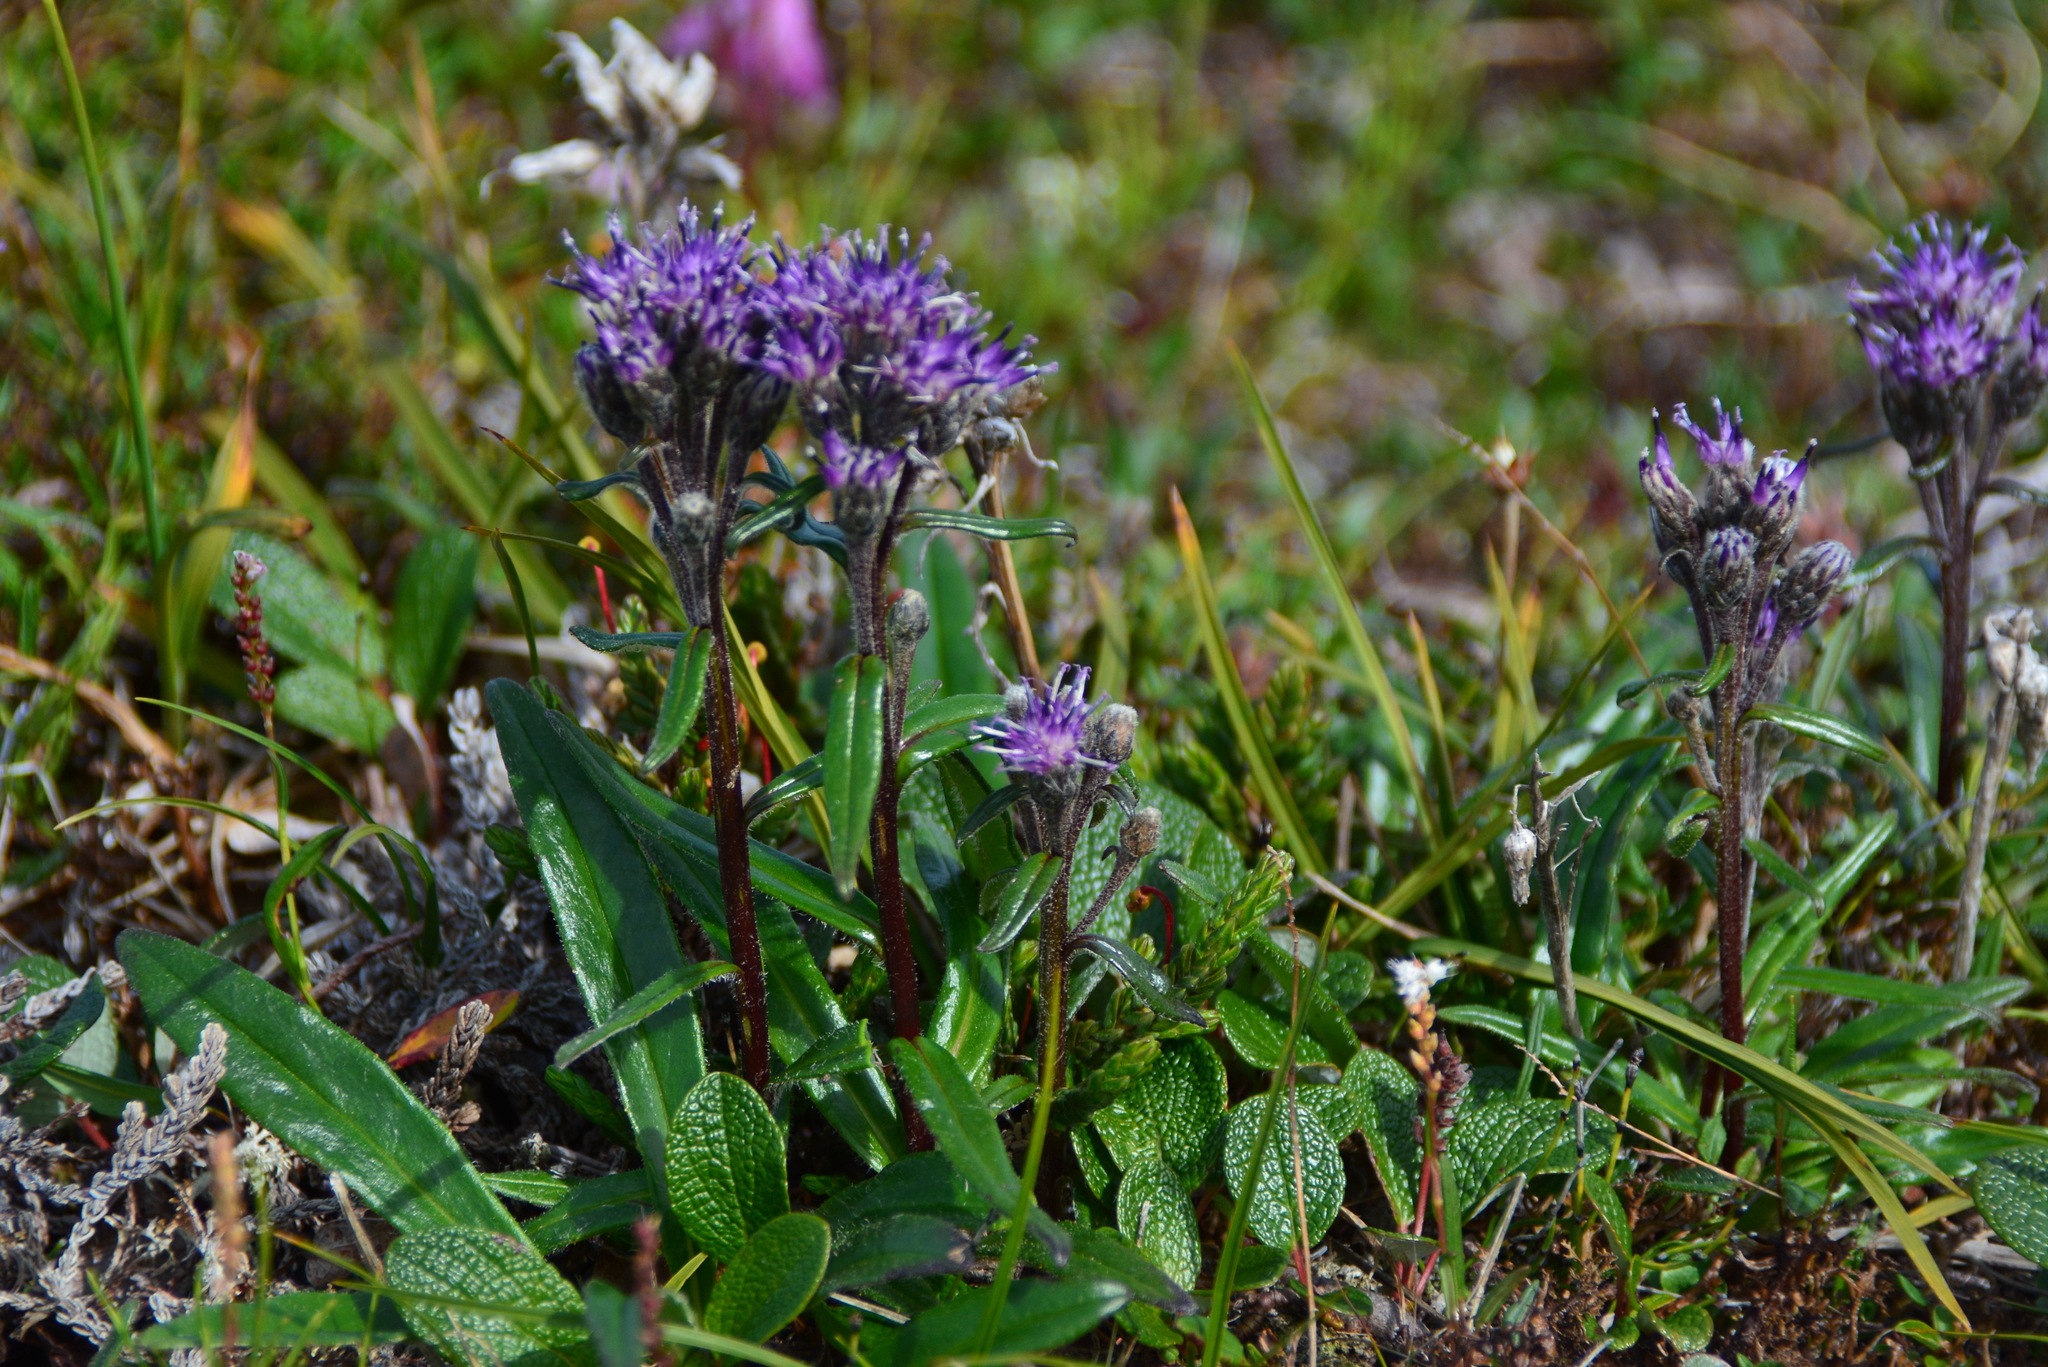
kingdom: Plantae
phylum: Tracheophyta
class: Magnoliopsida
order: Asterales
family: Asteraceae
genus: Saussurea
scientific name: Saussurea angustifolia
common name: Common saussurea
